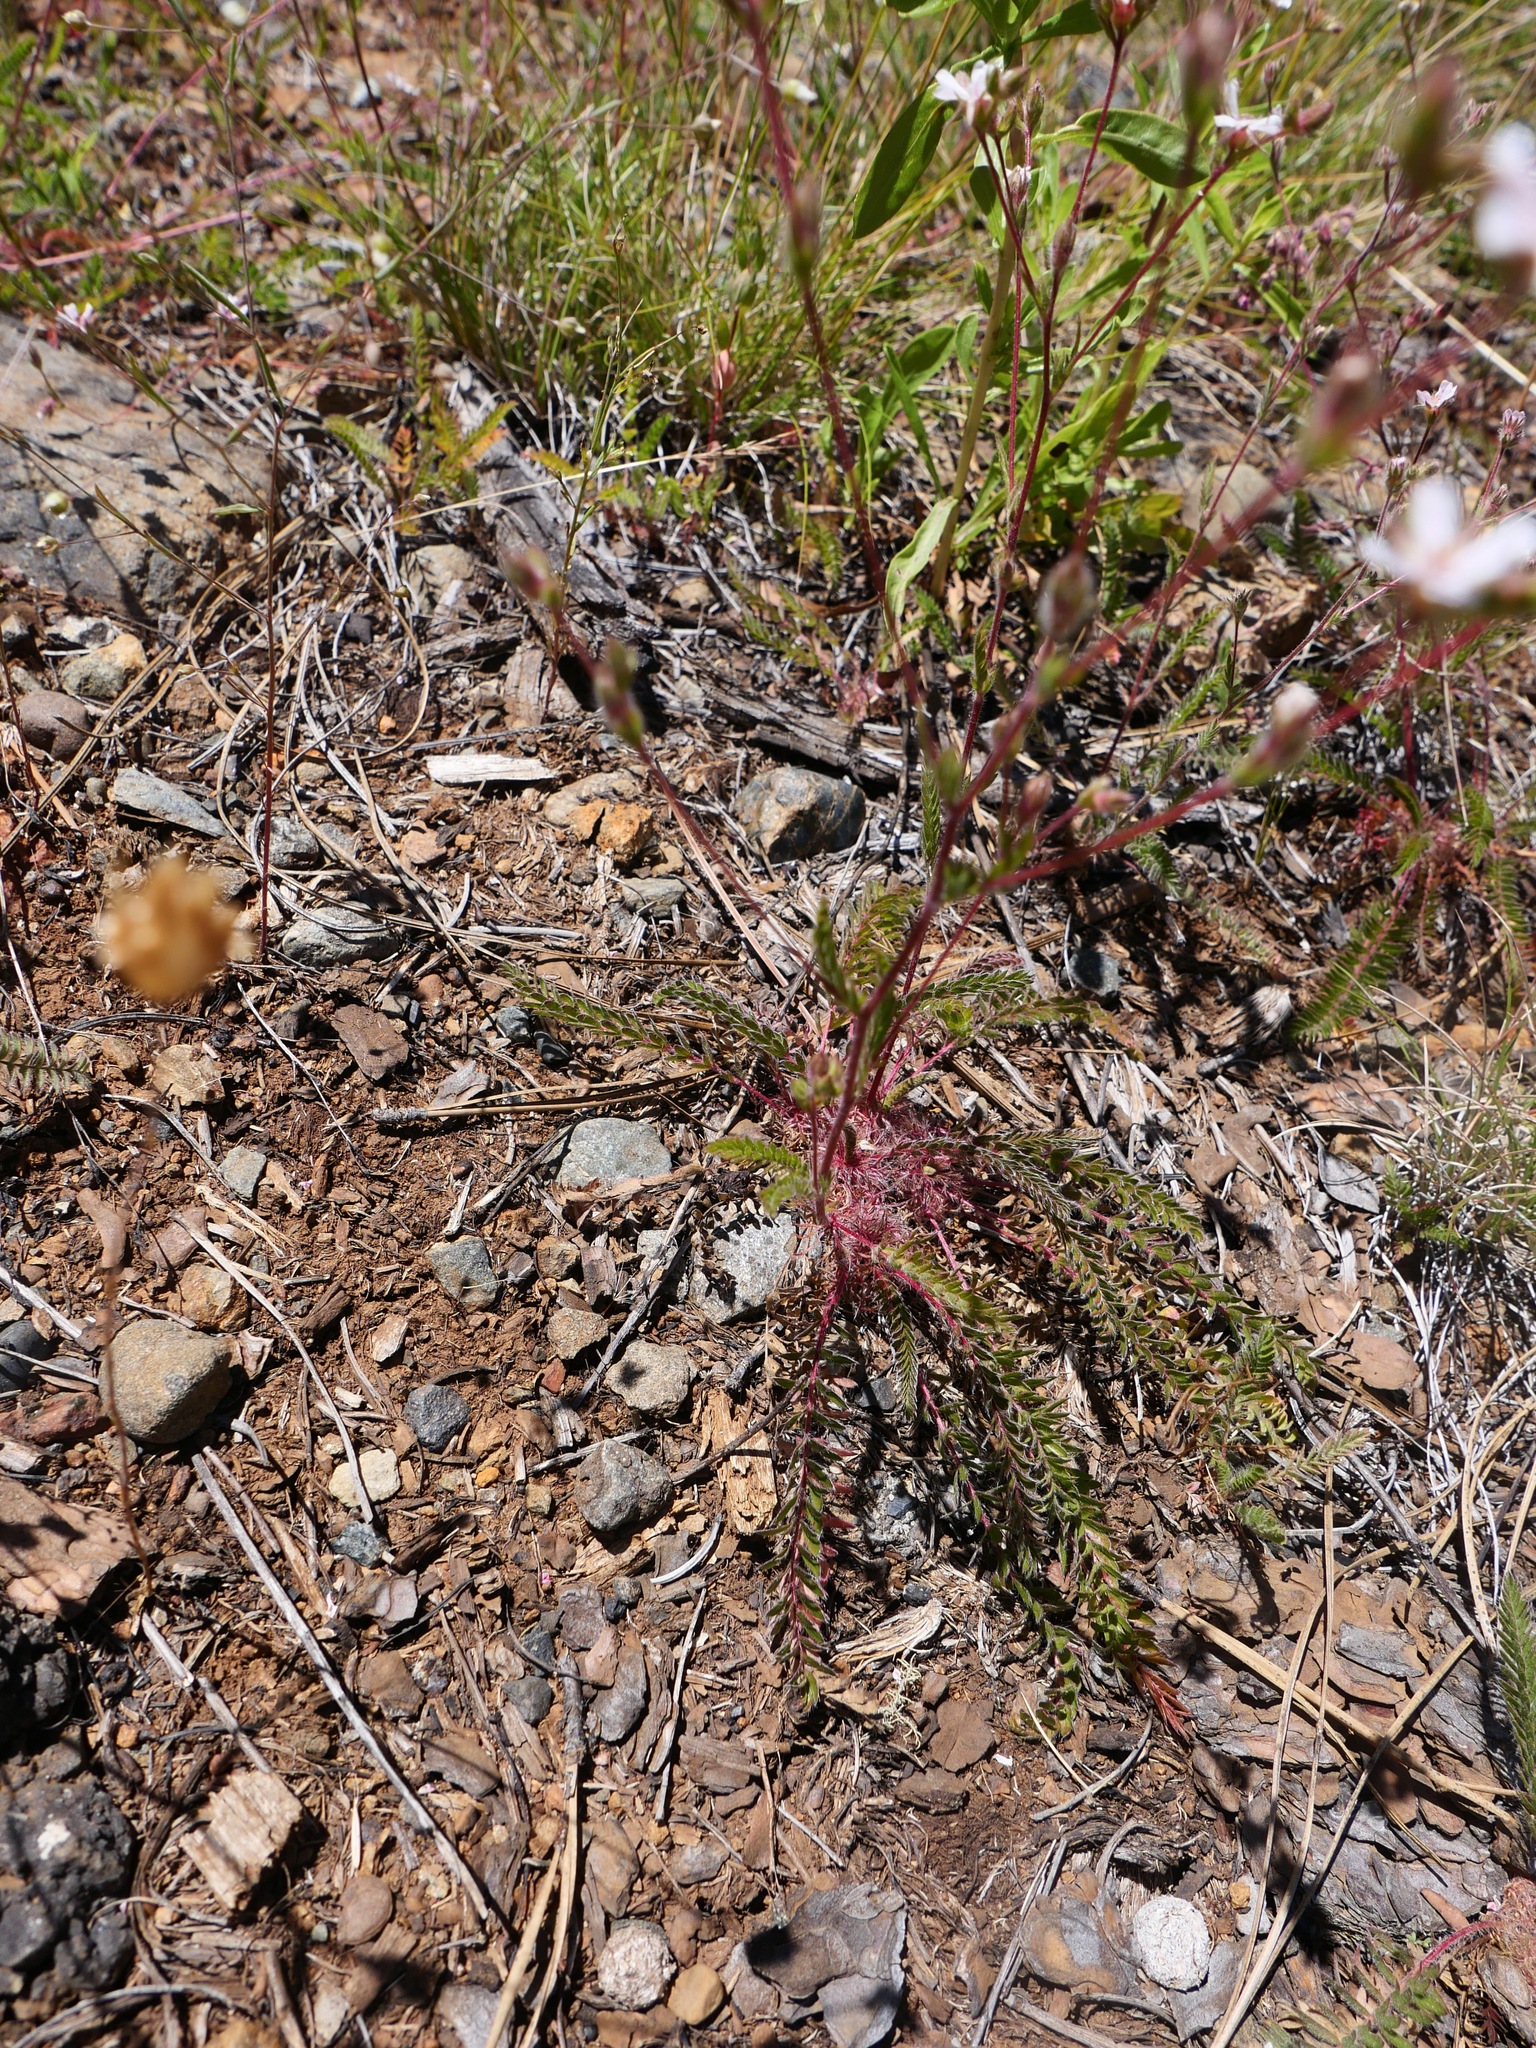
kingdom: Plantae
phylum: Tracheophyta
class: Magnoliopsida
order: Rosales
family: Rosaceae
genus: Potentilla
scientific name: Potentilla howellii
